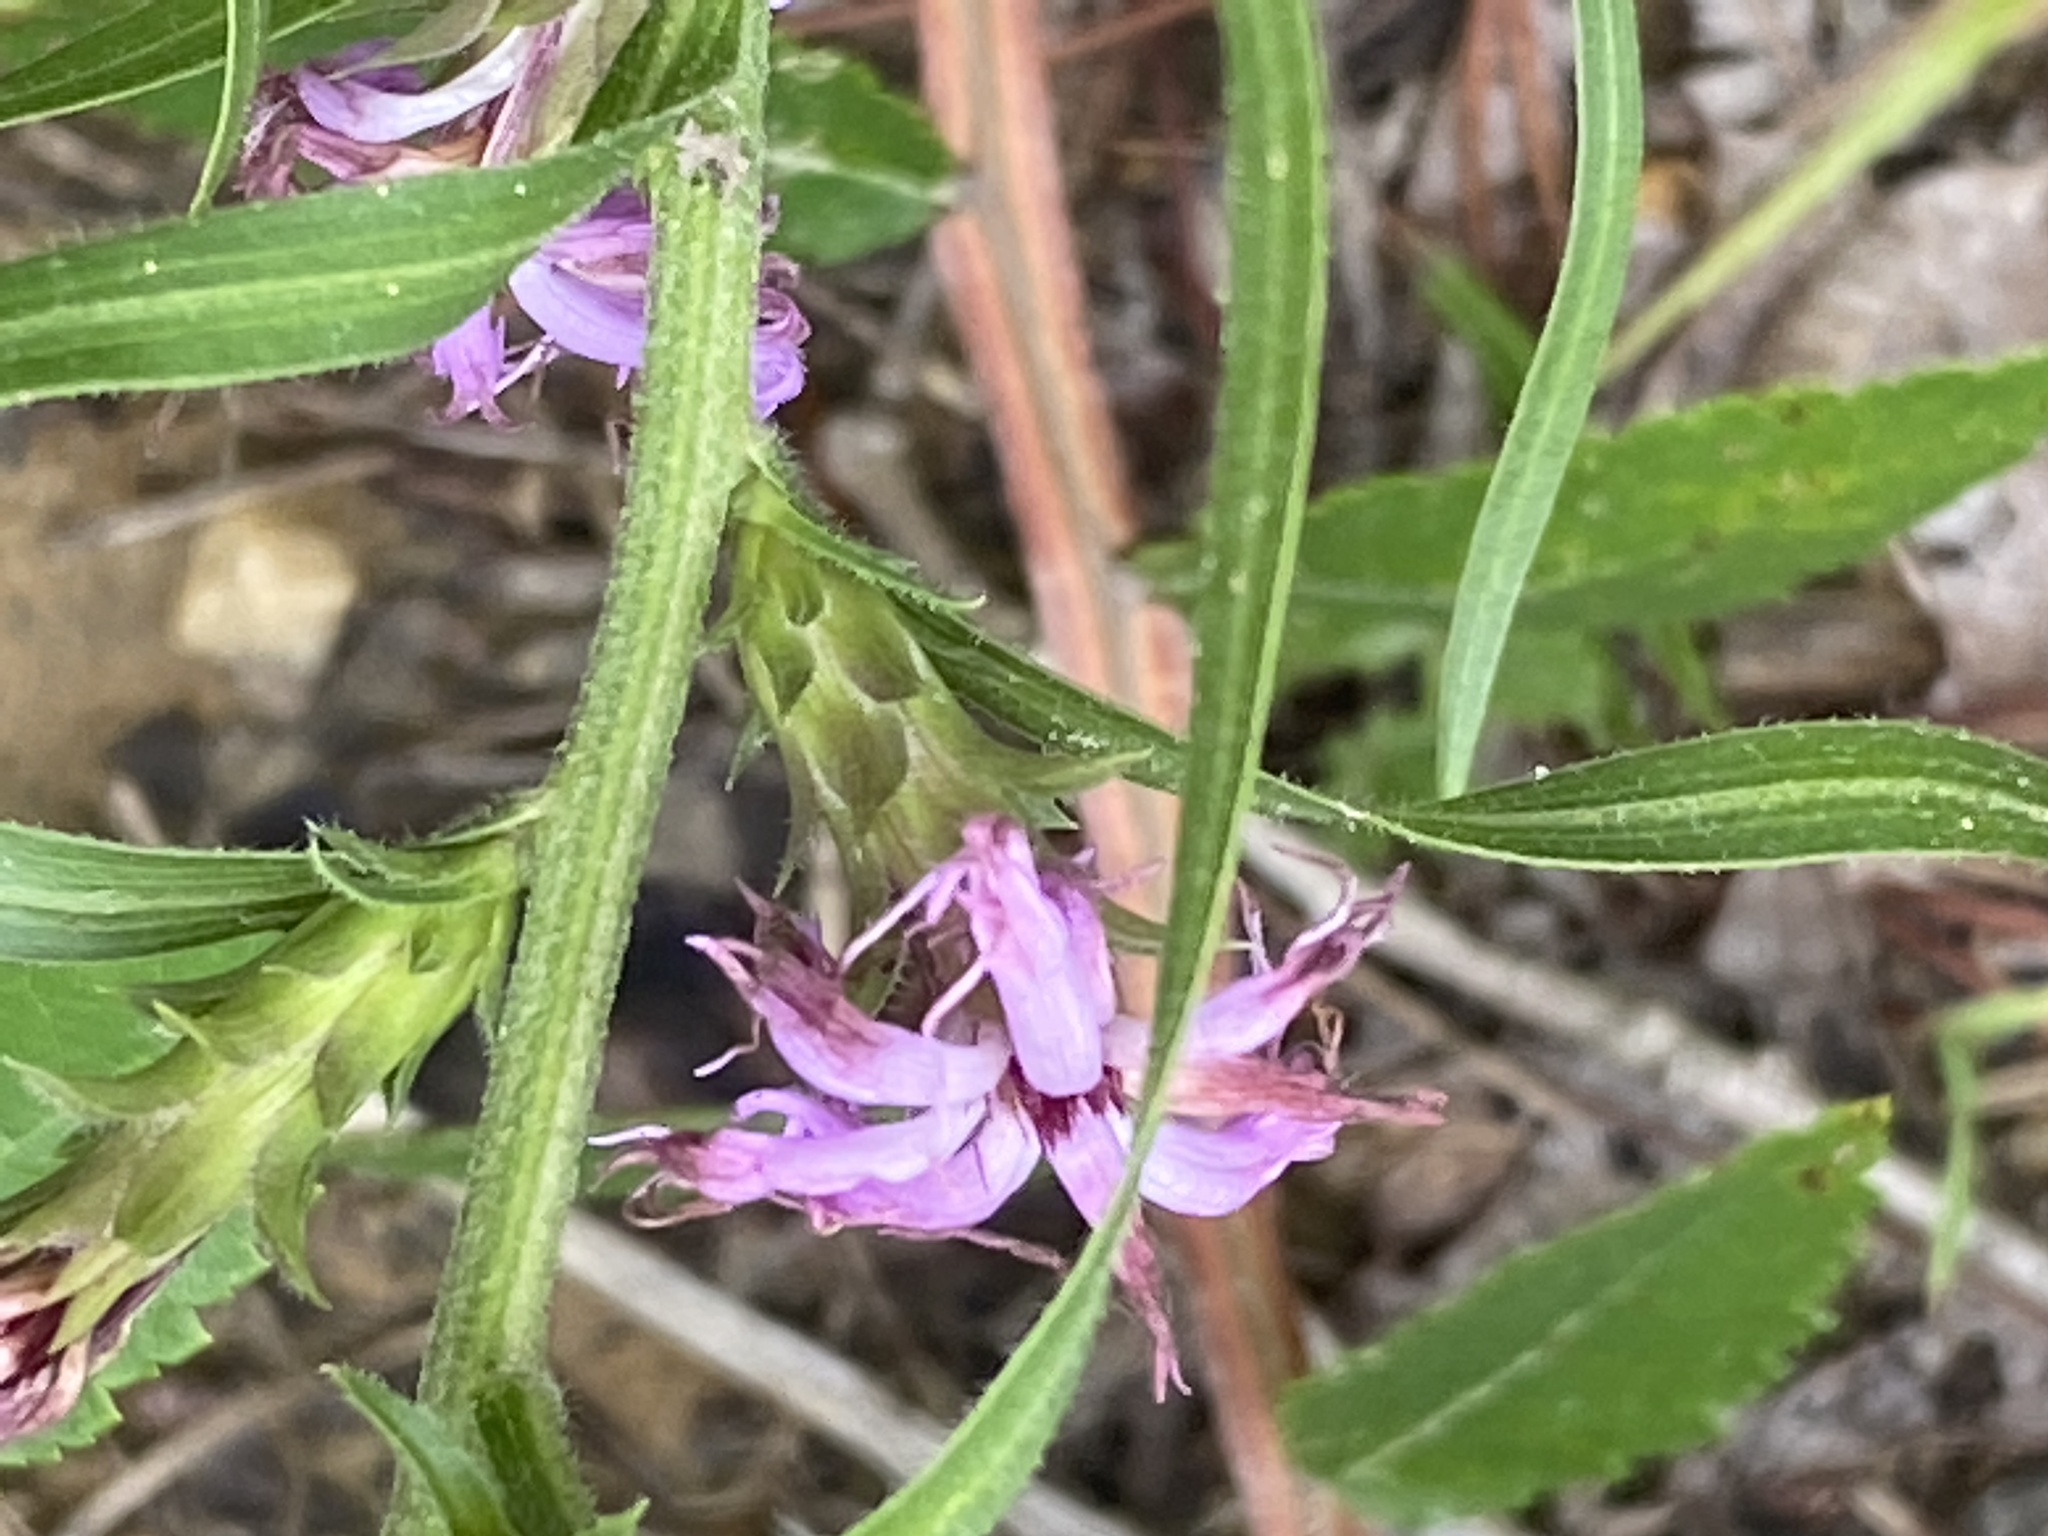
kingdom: Plantae
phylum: Tracheophyta
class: Magnoliopsida
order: Asterales
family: Asteraceae
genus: Liatris
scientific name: Liatris squarrosa
